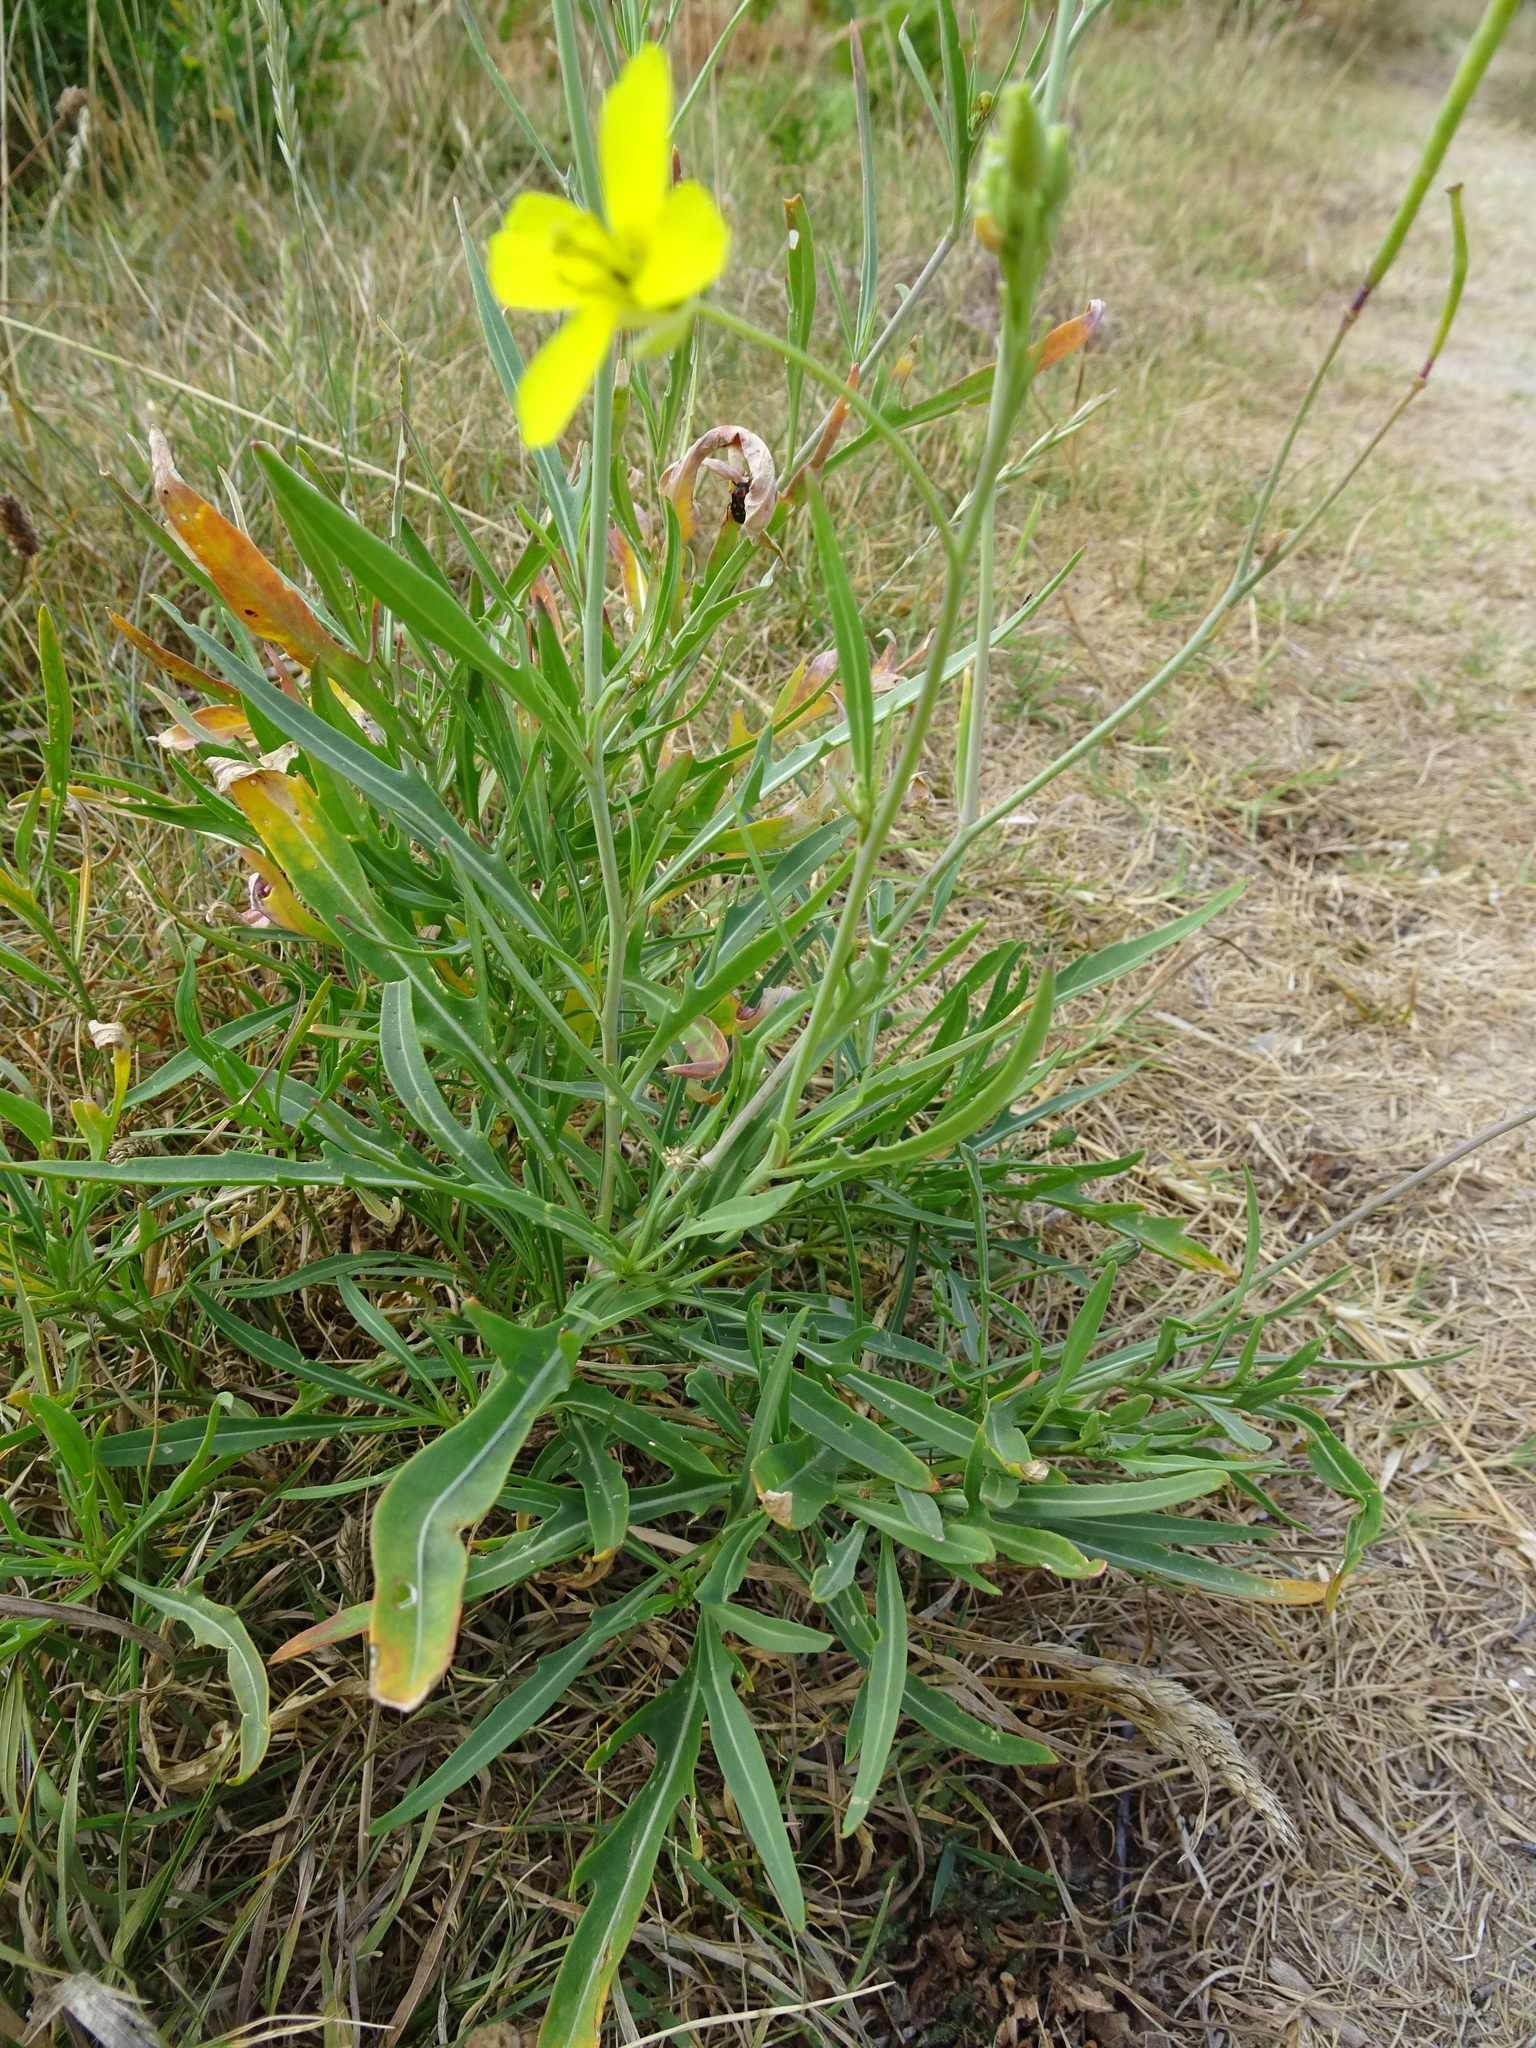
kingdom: Plantae
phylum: Tracheophyta
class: Magnoliopsida
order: Brassicales
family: Brassicaceae
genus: Diplotaxis
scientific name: Diplotaxis tenuifolia
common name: Perennial wall-rocket
